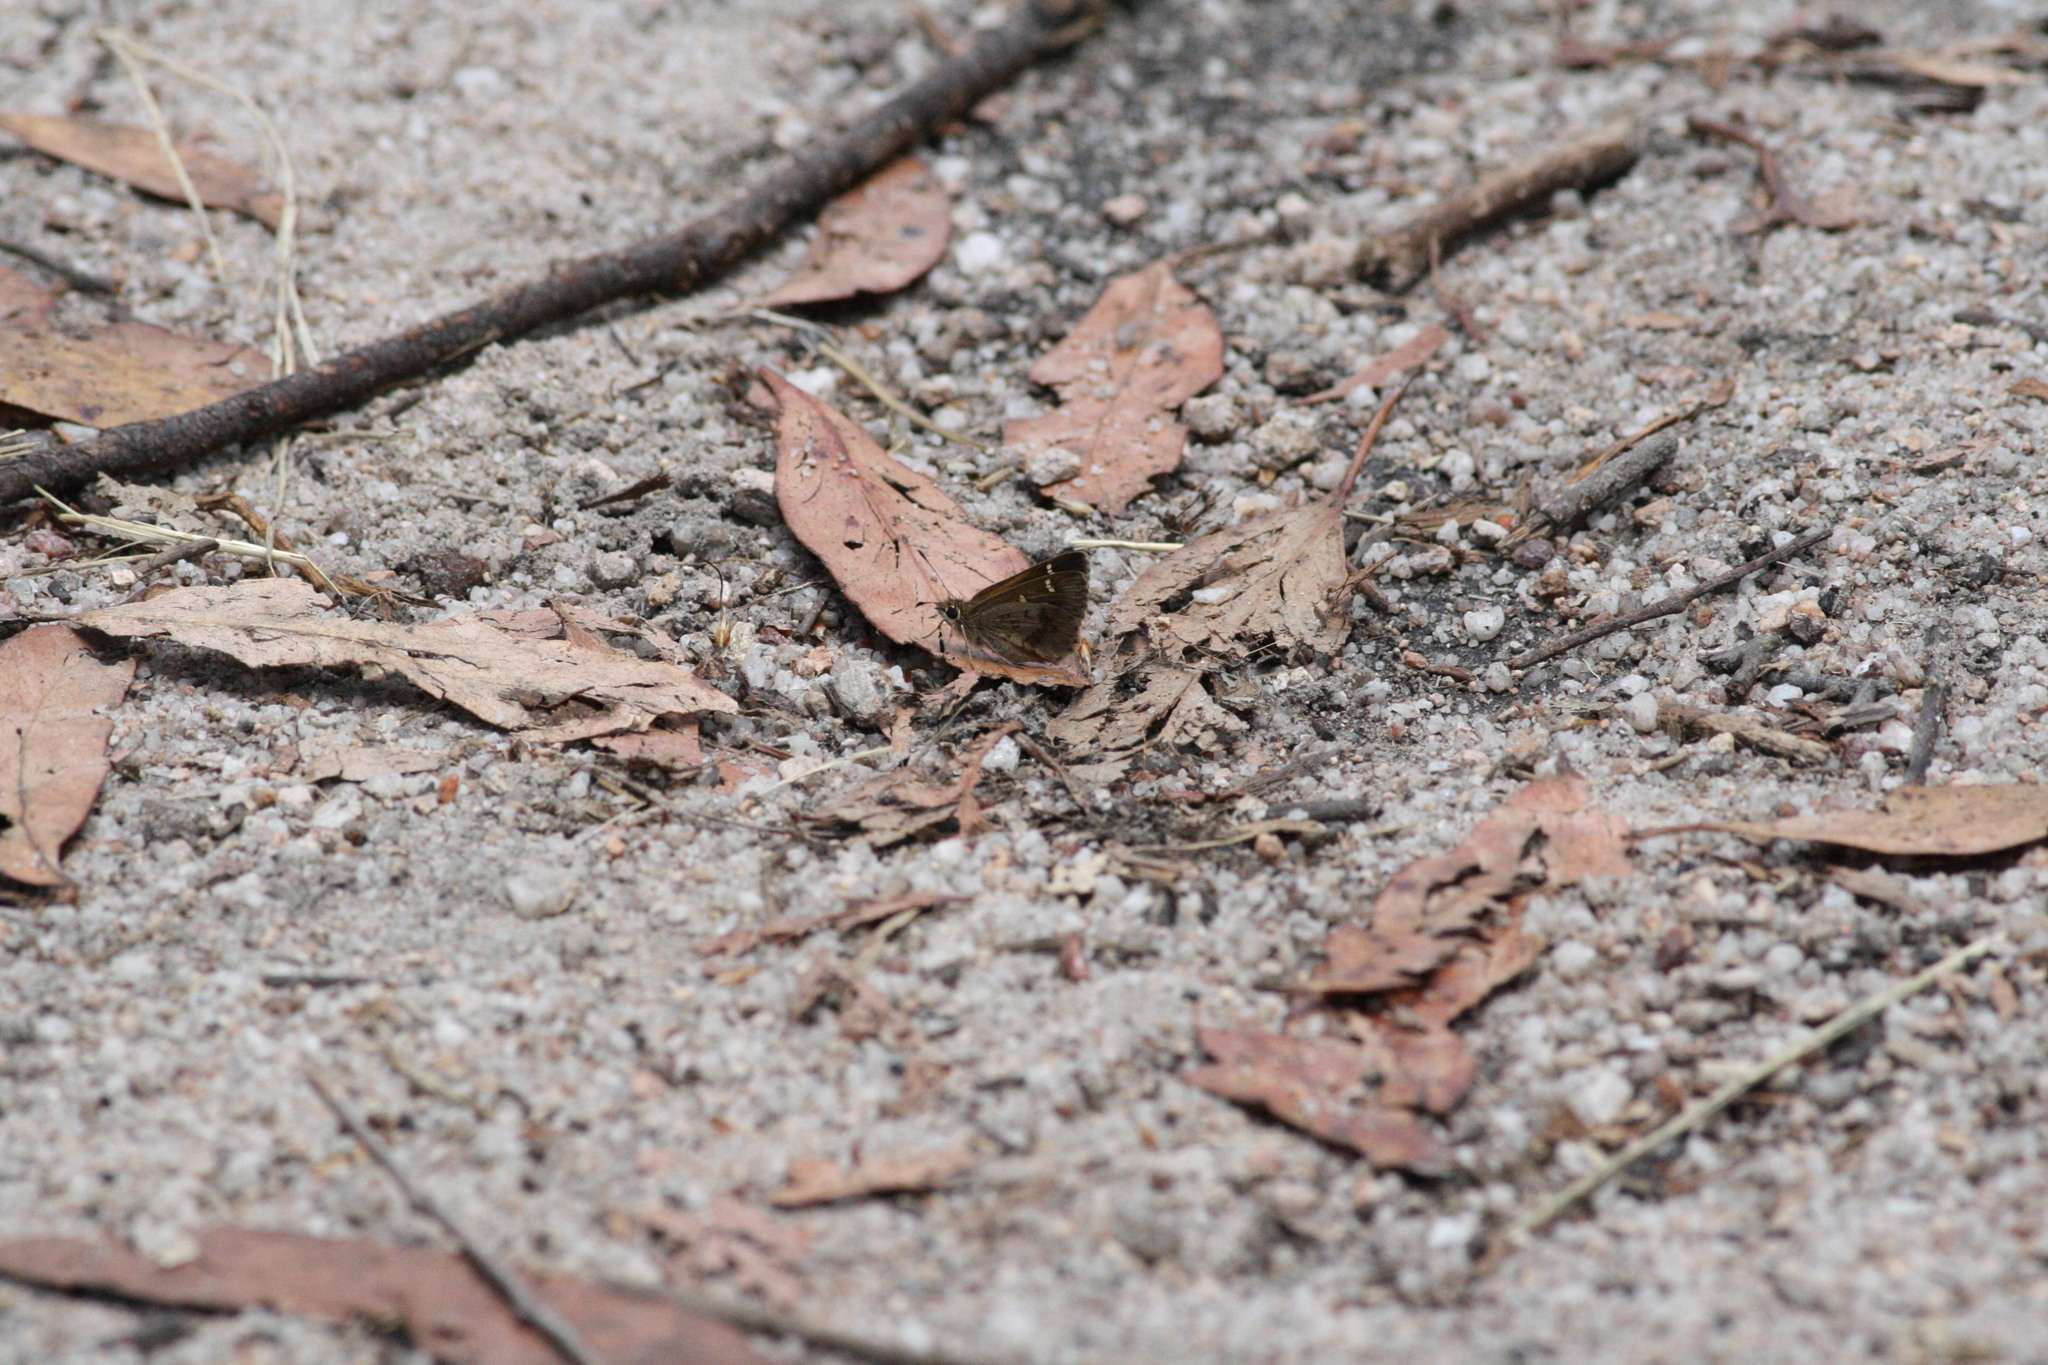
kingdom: Animalia
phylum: Arthropoda
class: Insecta
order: Lepidoptera
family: Hesperiidae
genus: Toxidia
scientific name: Toxidia parvulus
